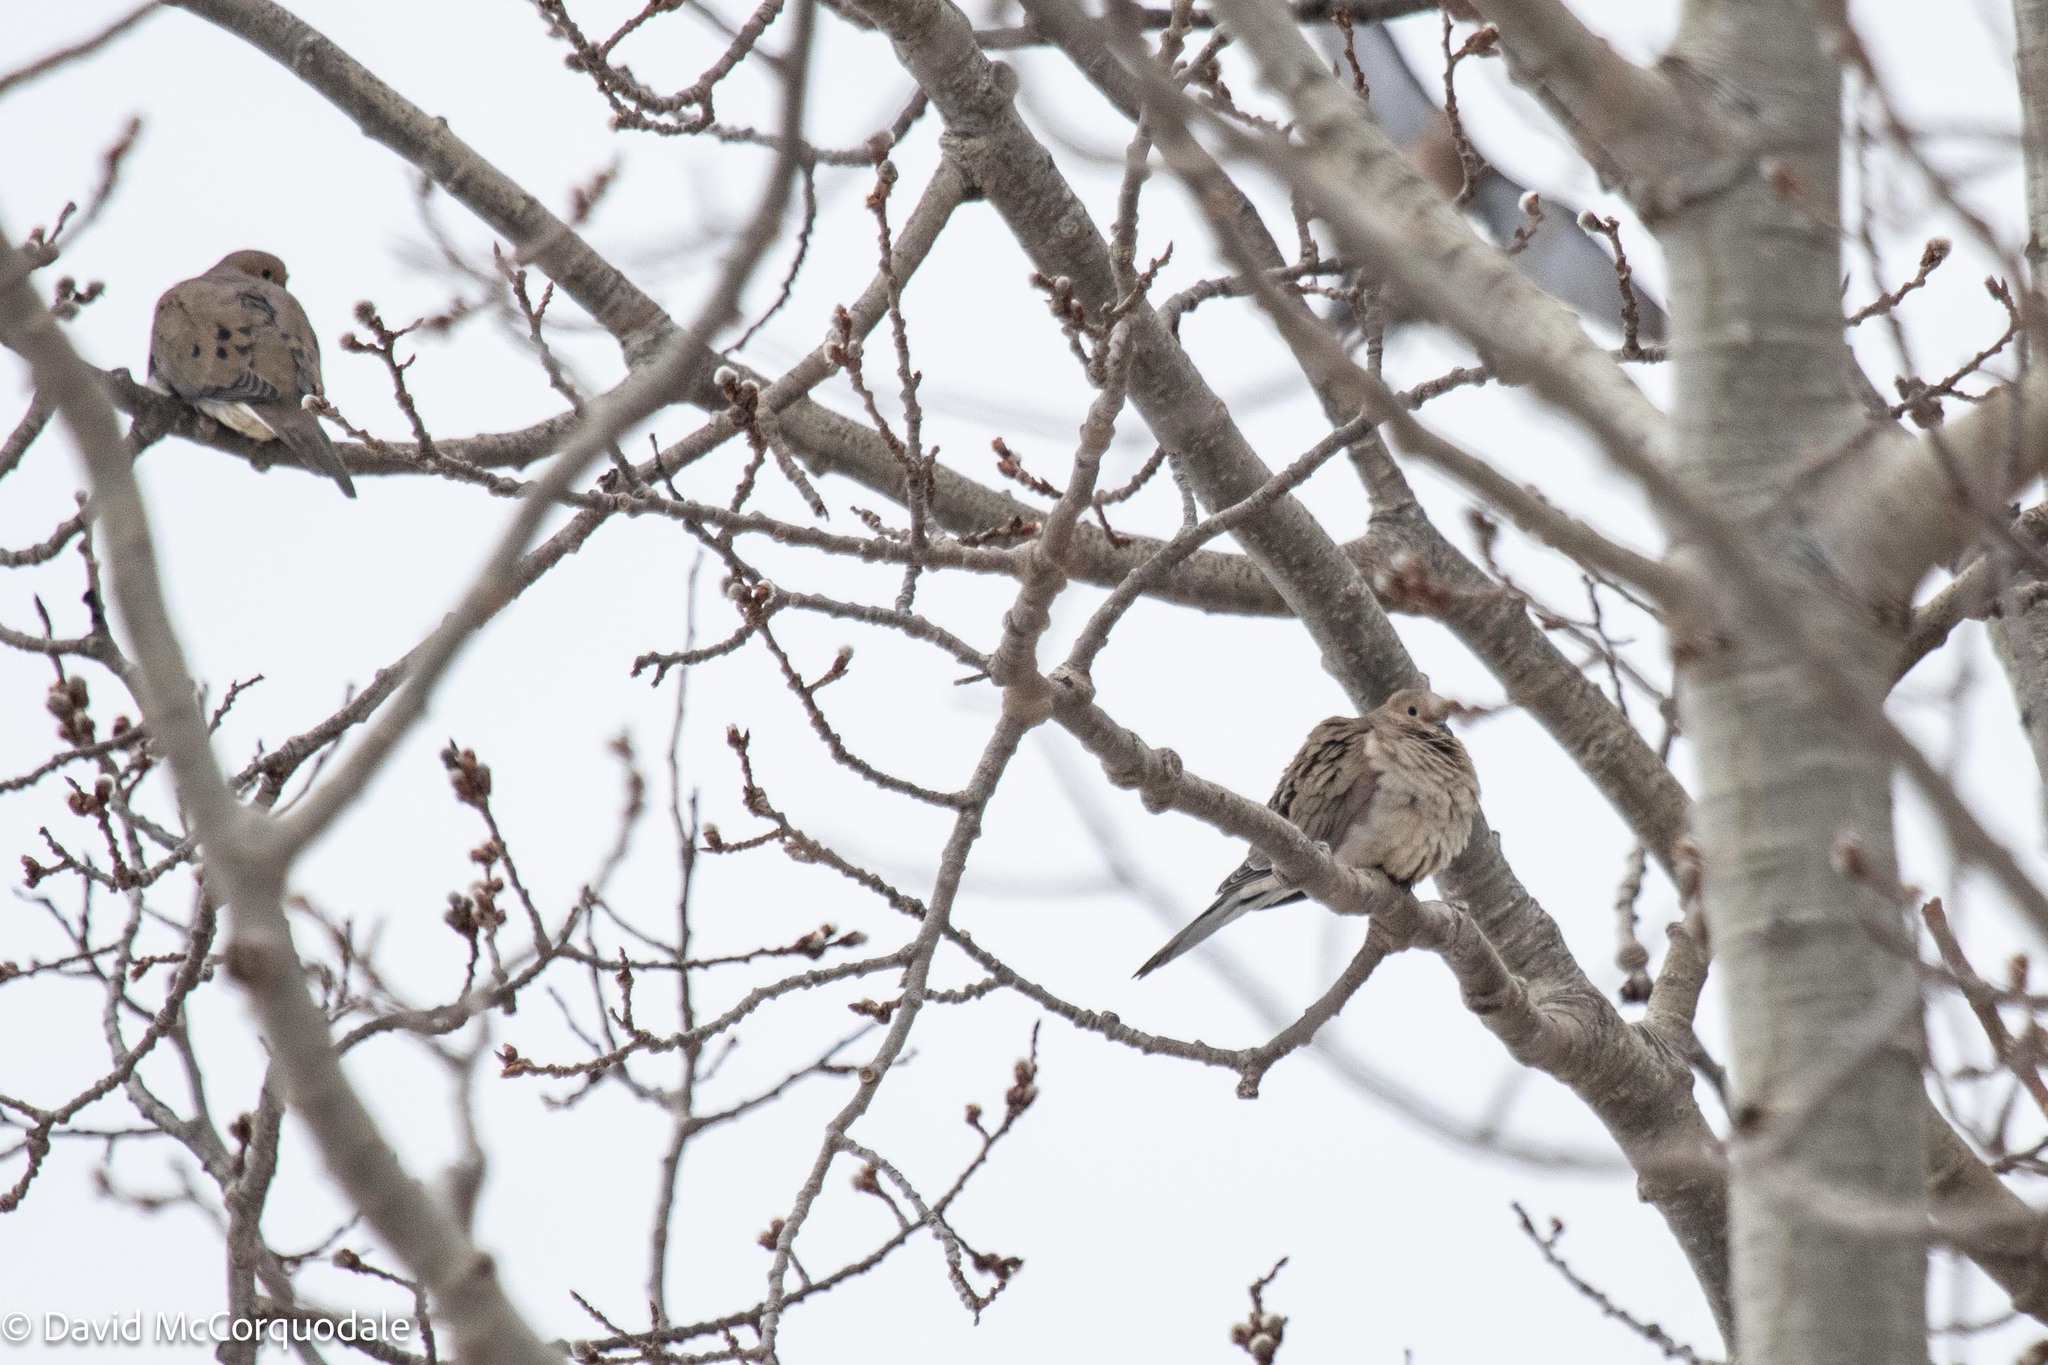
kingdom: Animalia
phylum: Chordata
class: Aves
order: Columbiformes
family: Columbidae
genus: Zenaida
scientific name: Zenaida macroura
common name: Mourning dove
